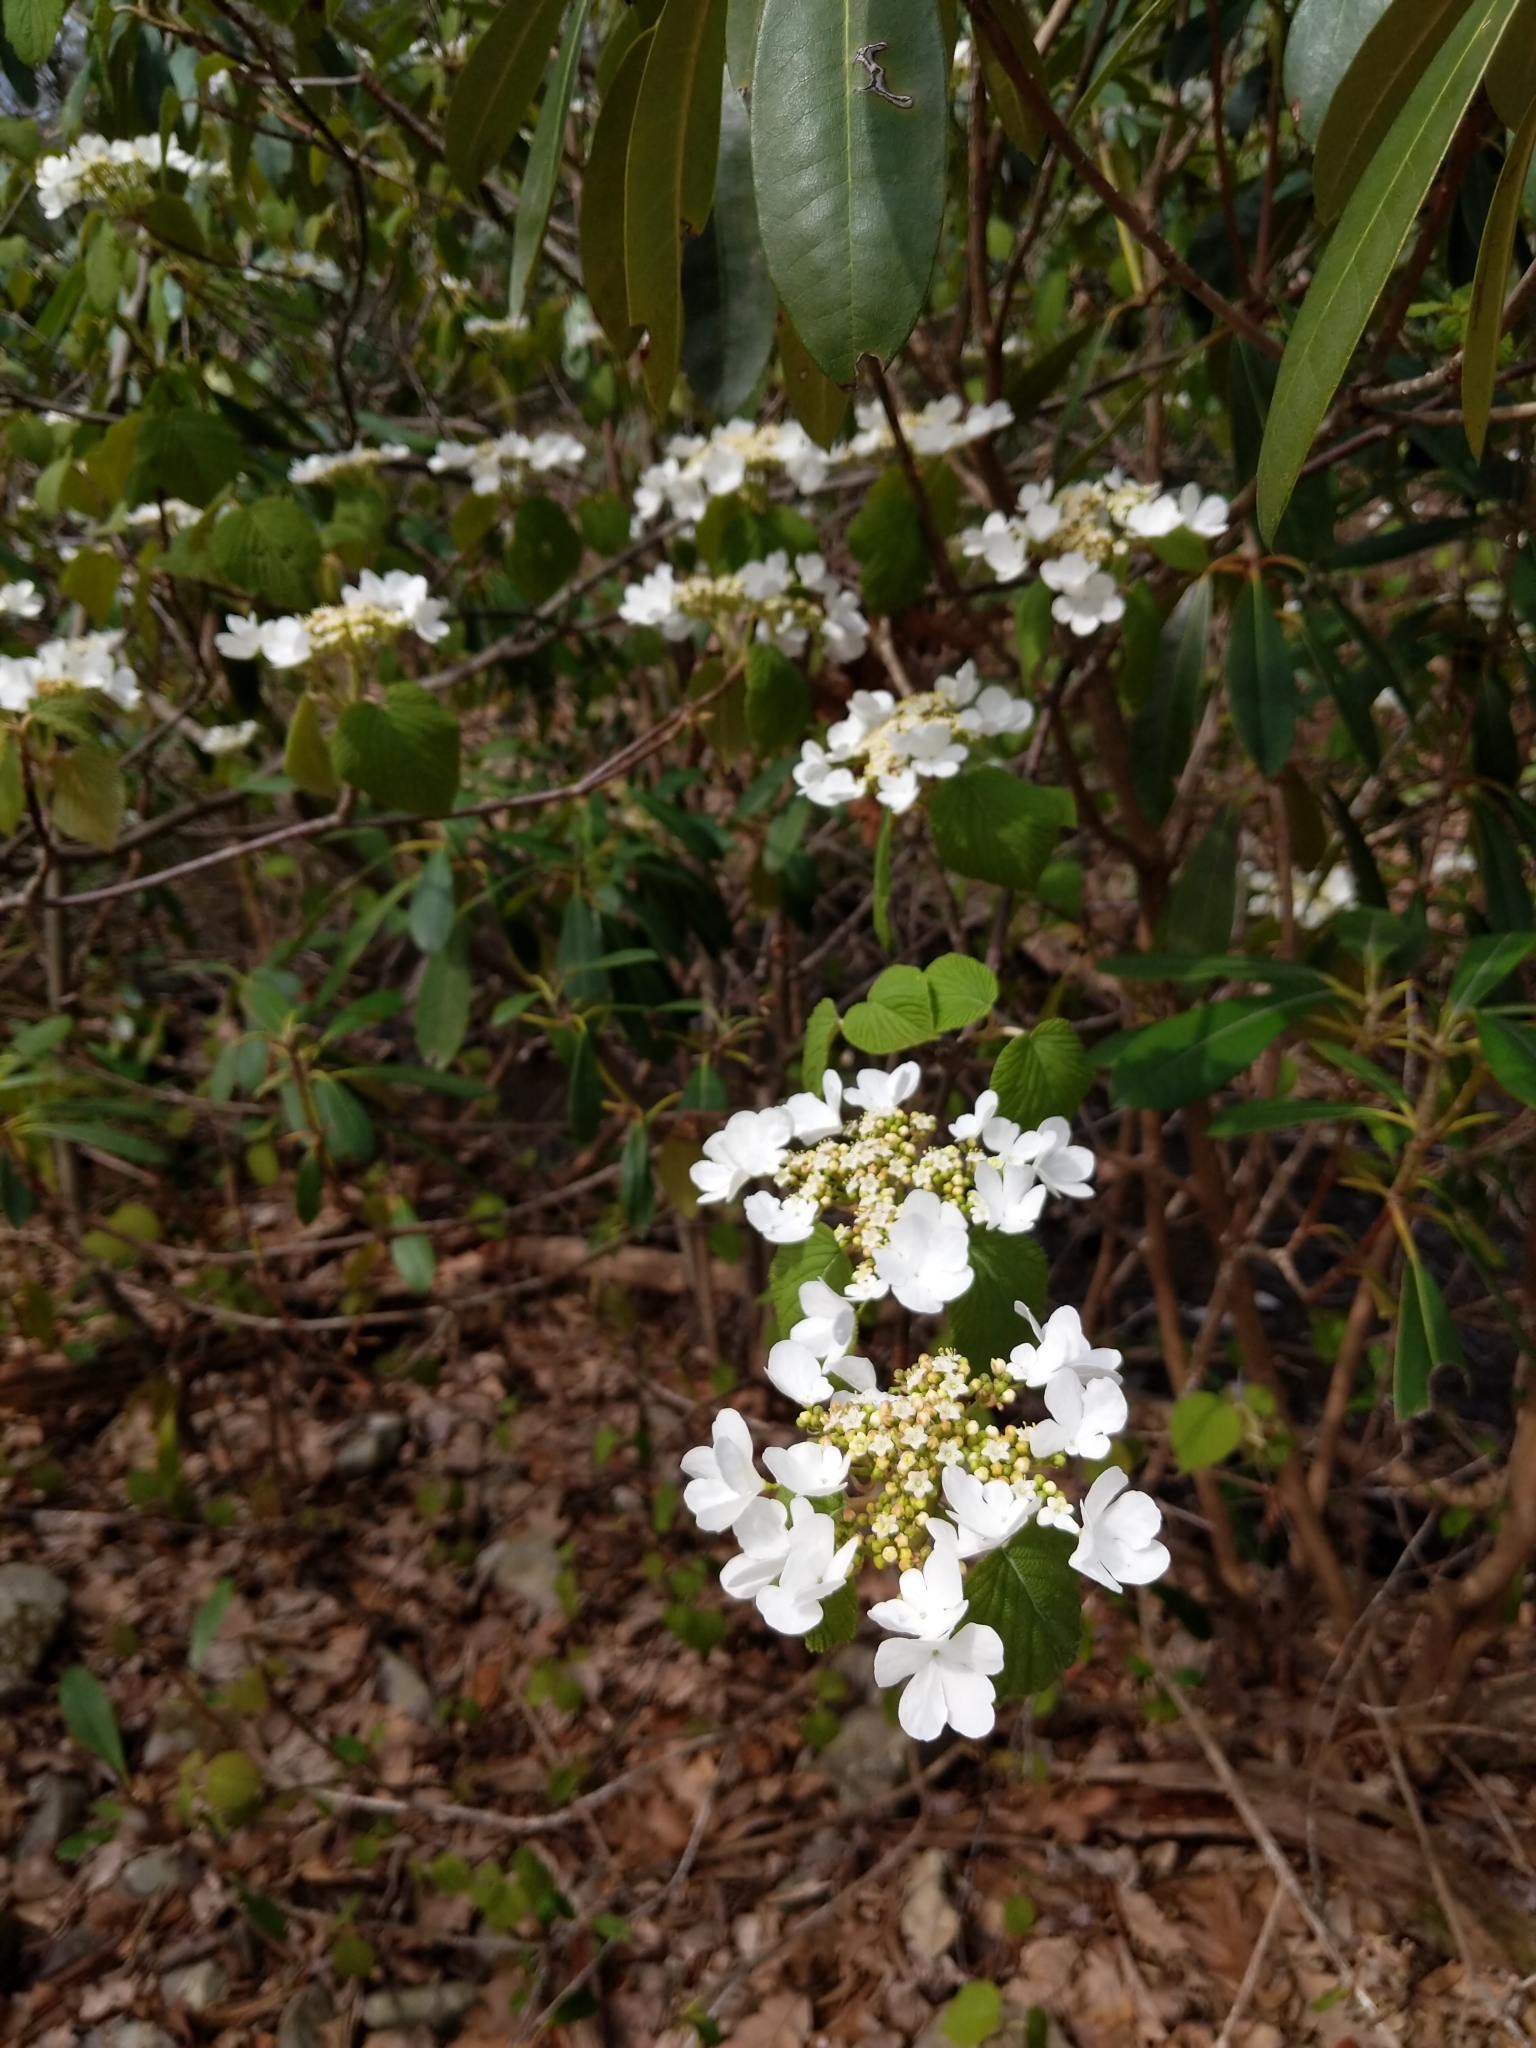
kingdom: Plantae
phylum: Tracheophyta
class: Magnoliopsida
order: Dipsacales
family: Viburnaceae
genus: Viburnum
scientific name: Viburnum lantanoides
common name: Hobblebush
